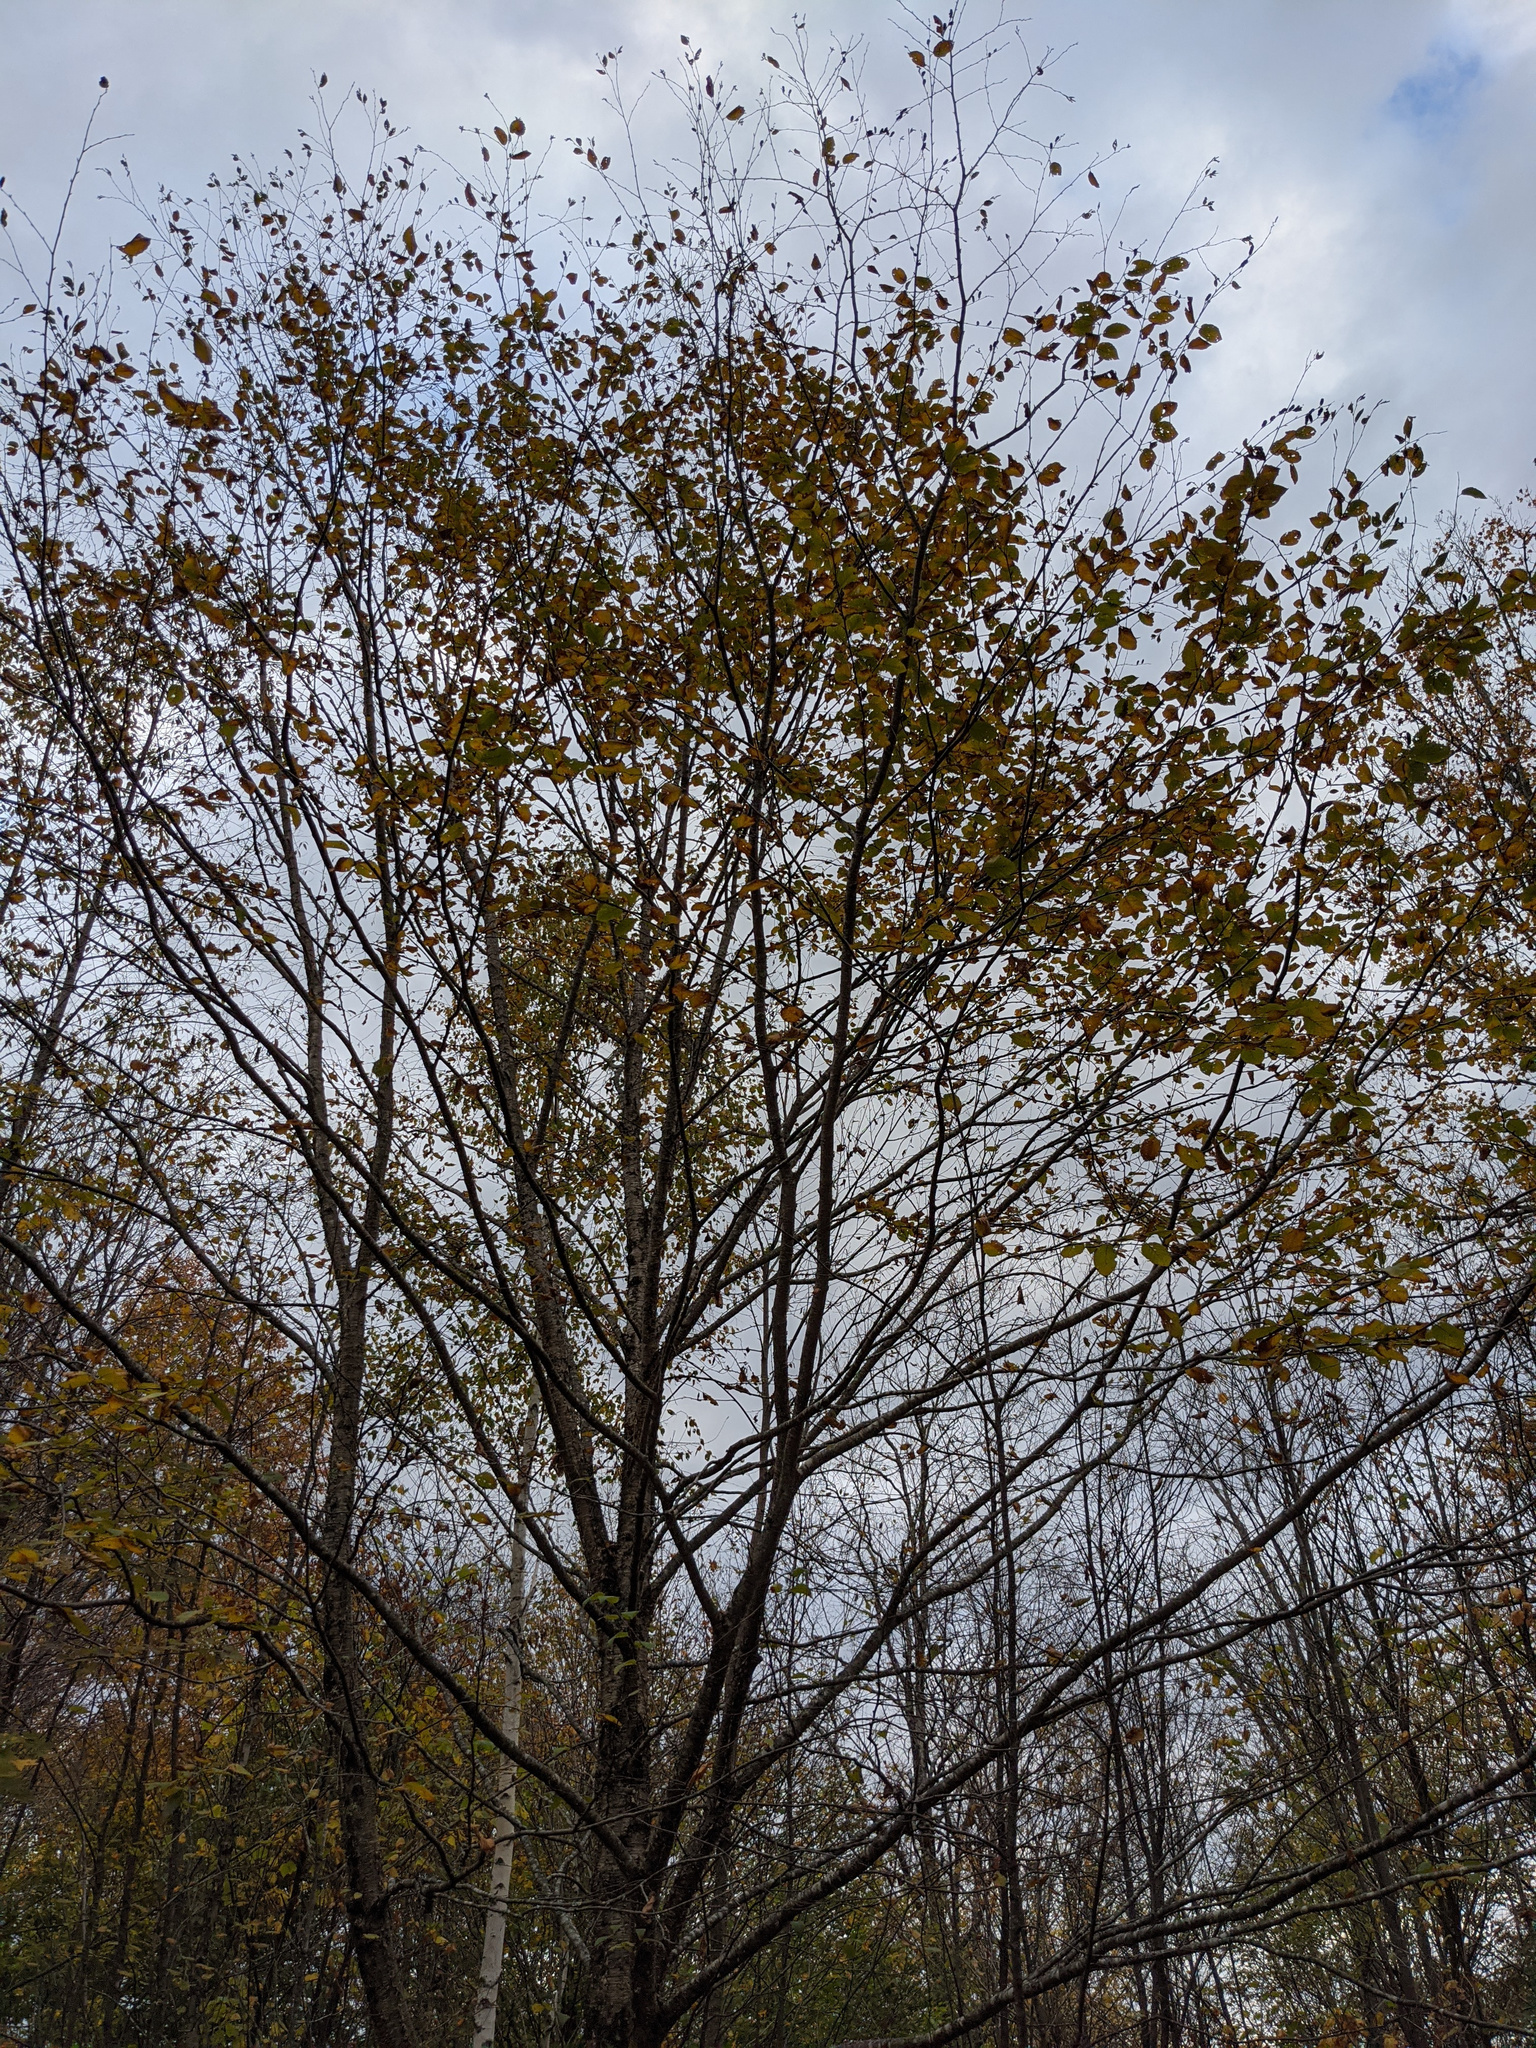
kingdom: Plantae
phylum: Tracheophyta
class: Magnoliopsida
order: Fagales
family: Betulaceae
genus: Betula
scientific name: Betula alleghaniensis
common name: Yellow birch
